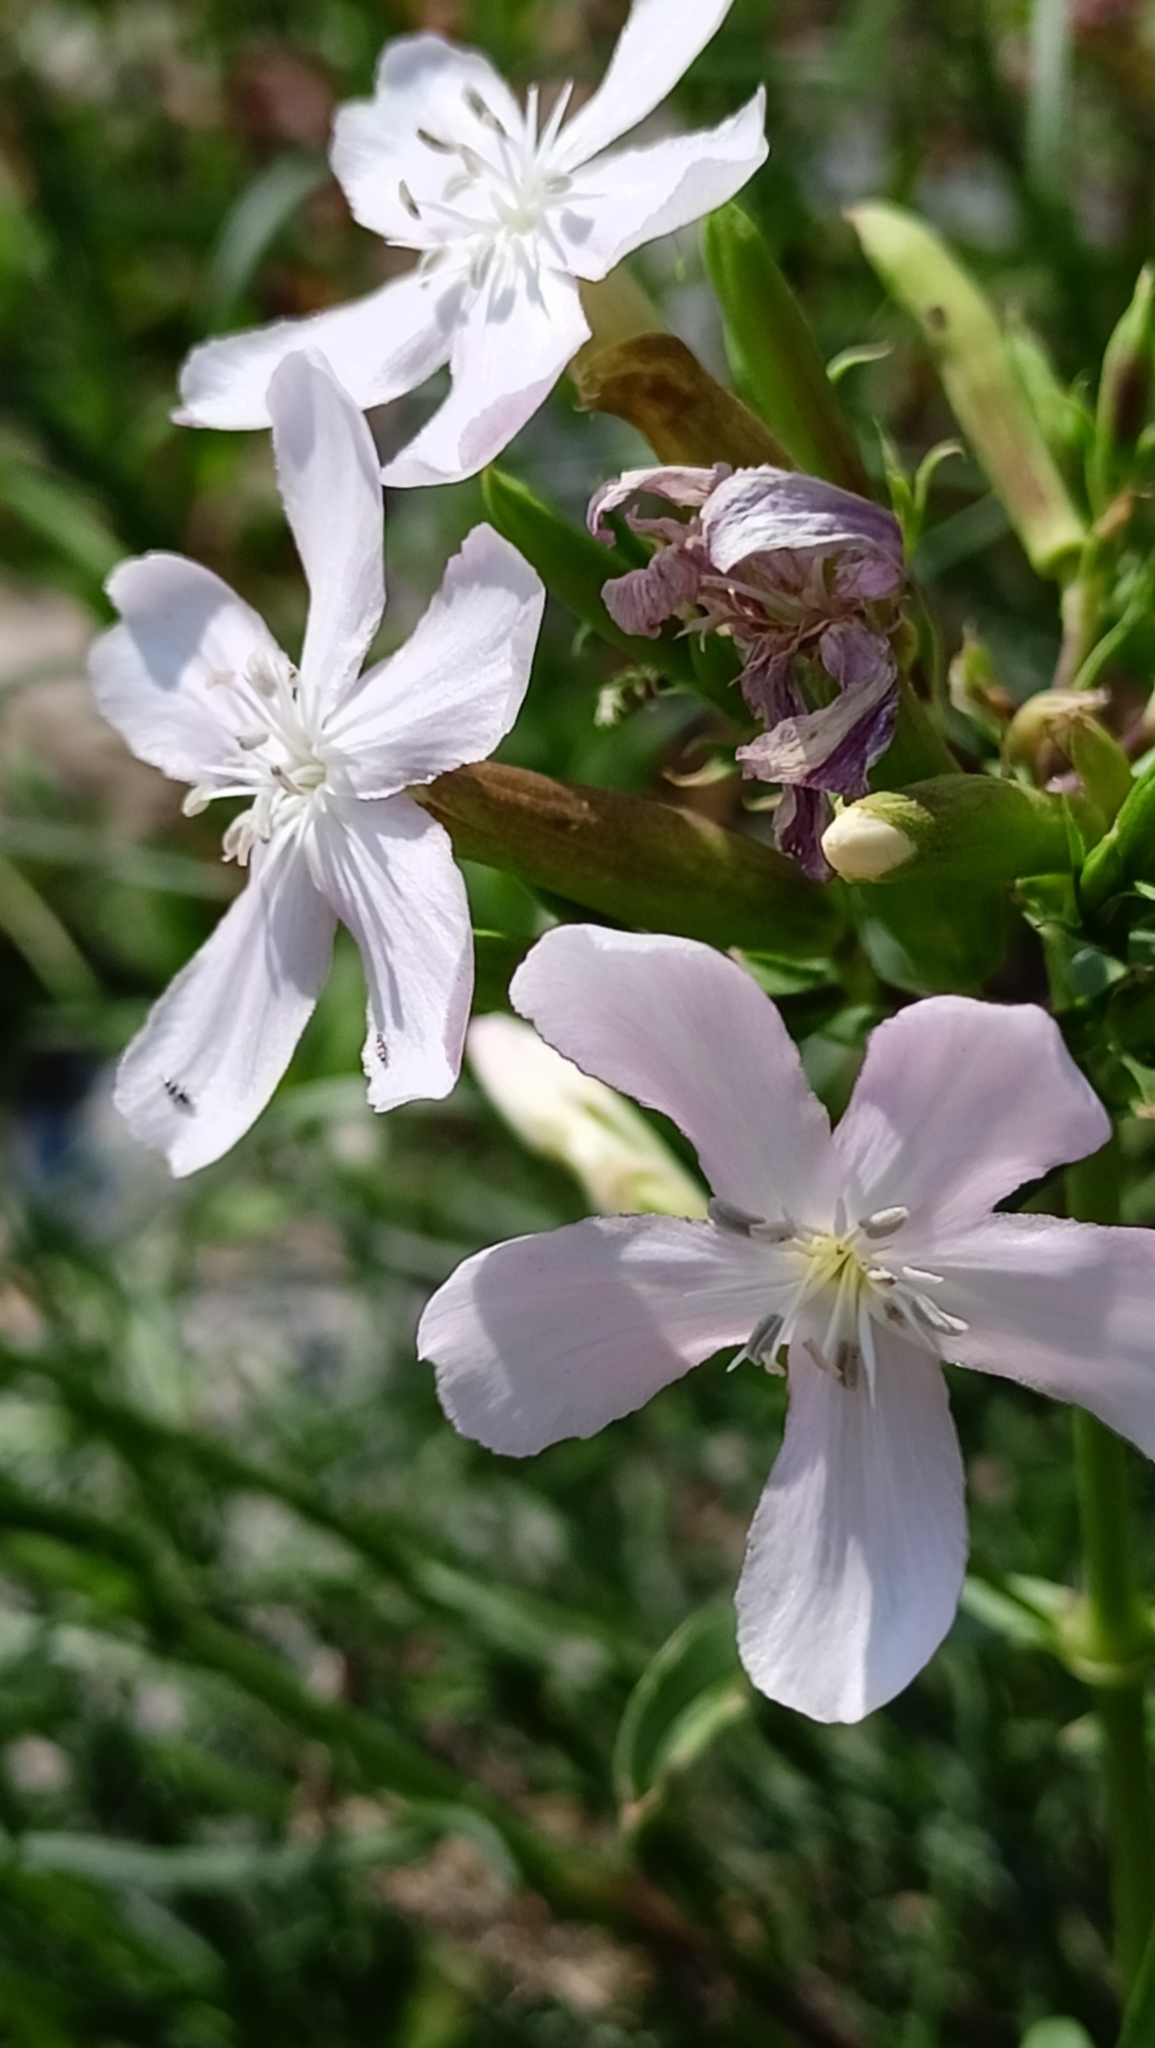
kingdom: Plantae
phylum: Tracheophyta
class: Magnoliopsida
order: Caryophyllales
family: Caryophyllaceae
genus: Saponaria
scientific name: Saponaria officinalis
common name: Soapwort
